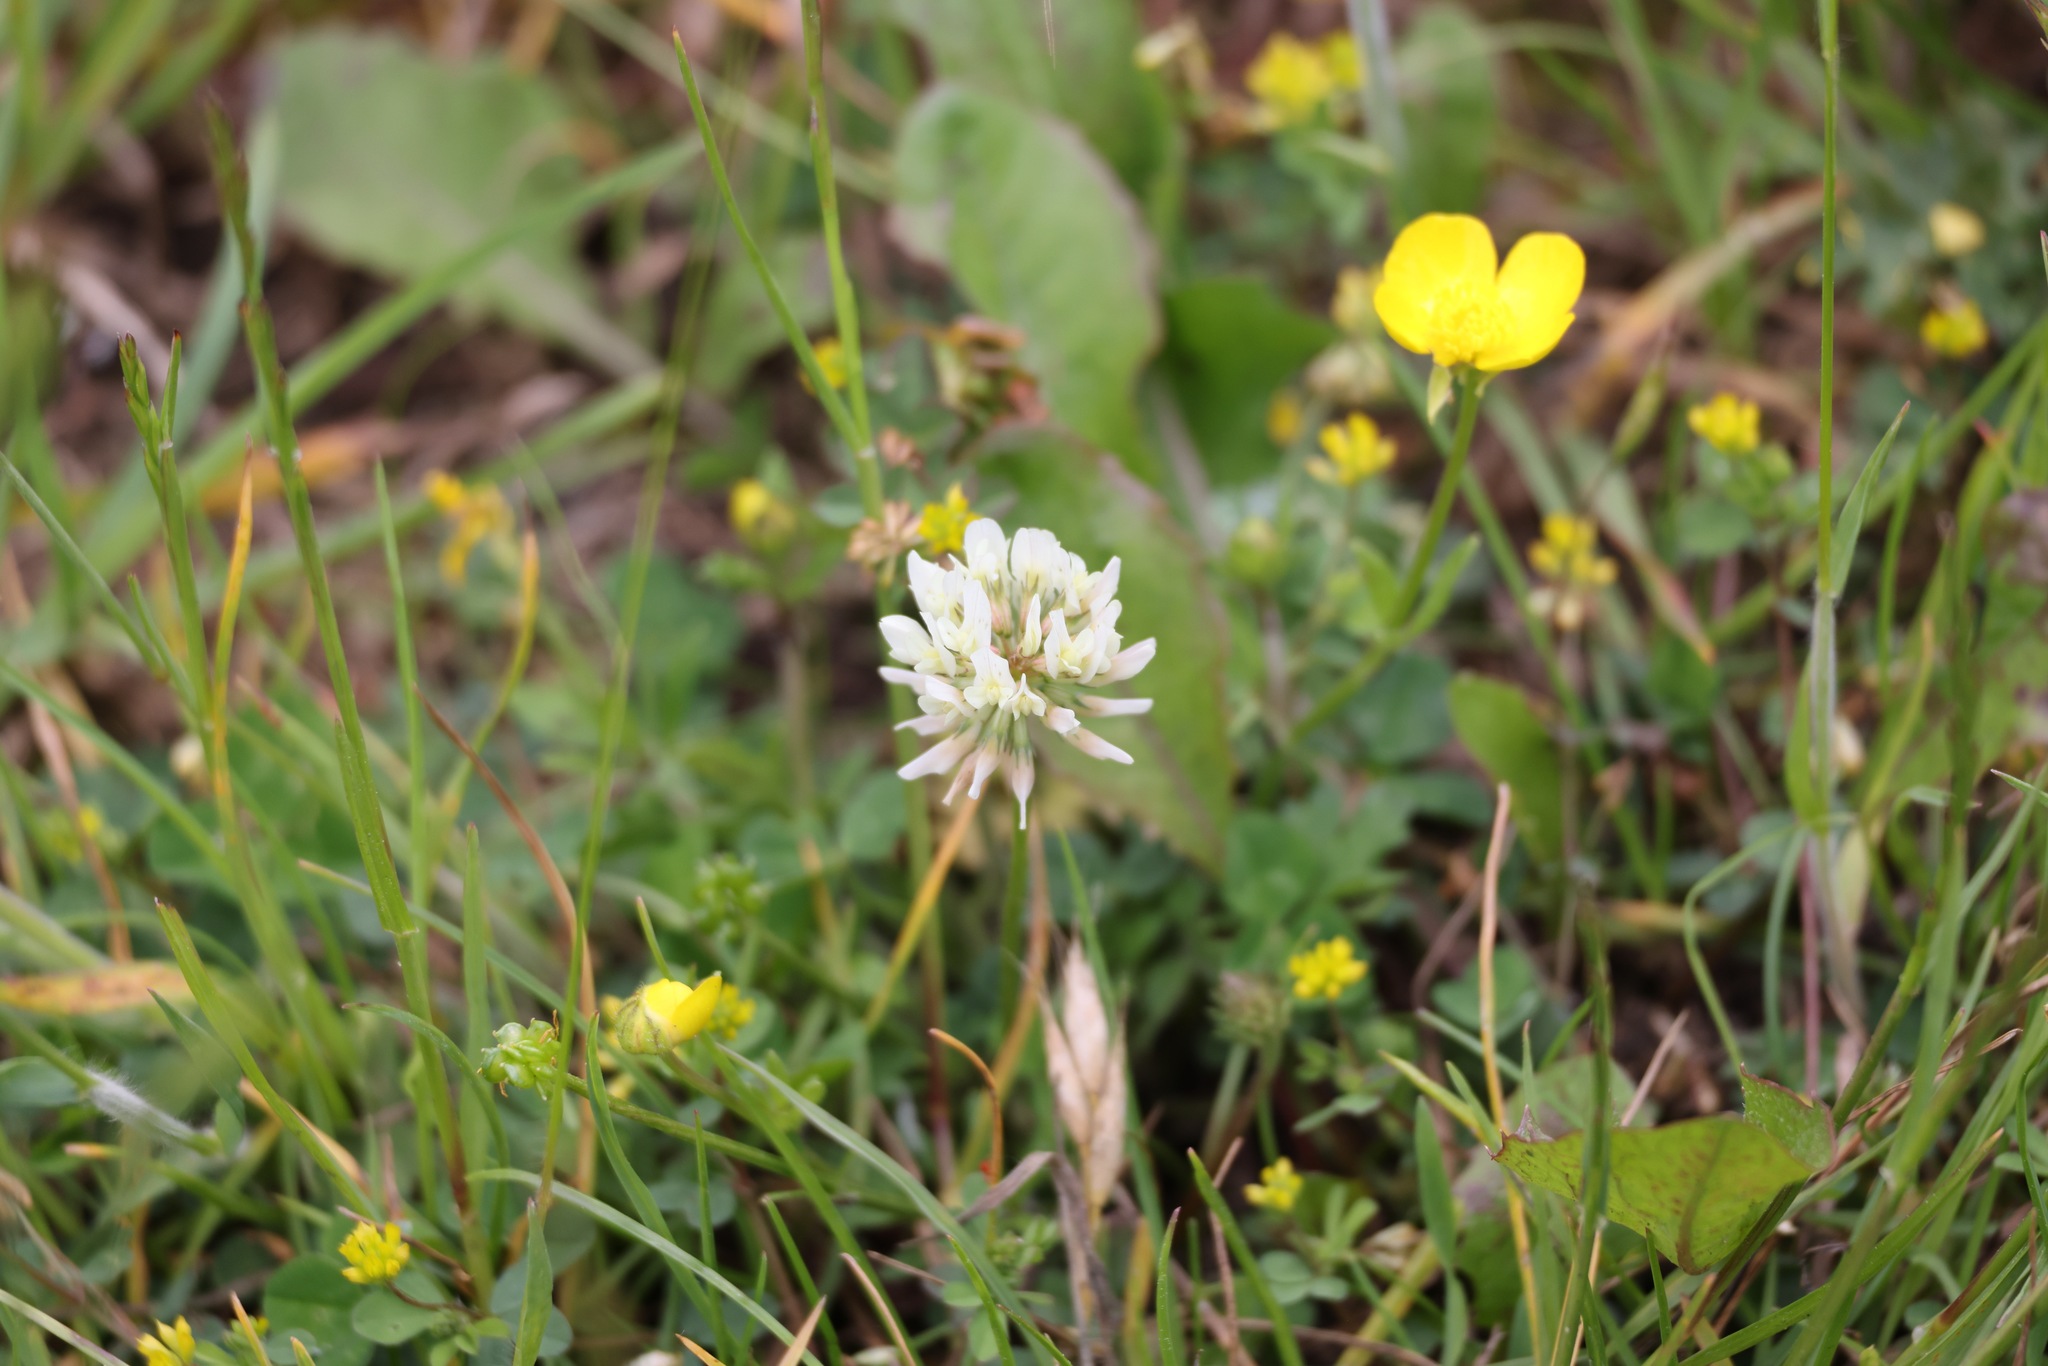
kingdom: Plantae
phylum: Tracheophyta
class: Magnoliopsida
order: Fabales
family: Fabaceae
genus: Trifolium
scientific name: Trifolium repens
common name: White clover
